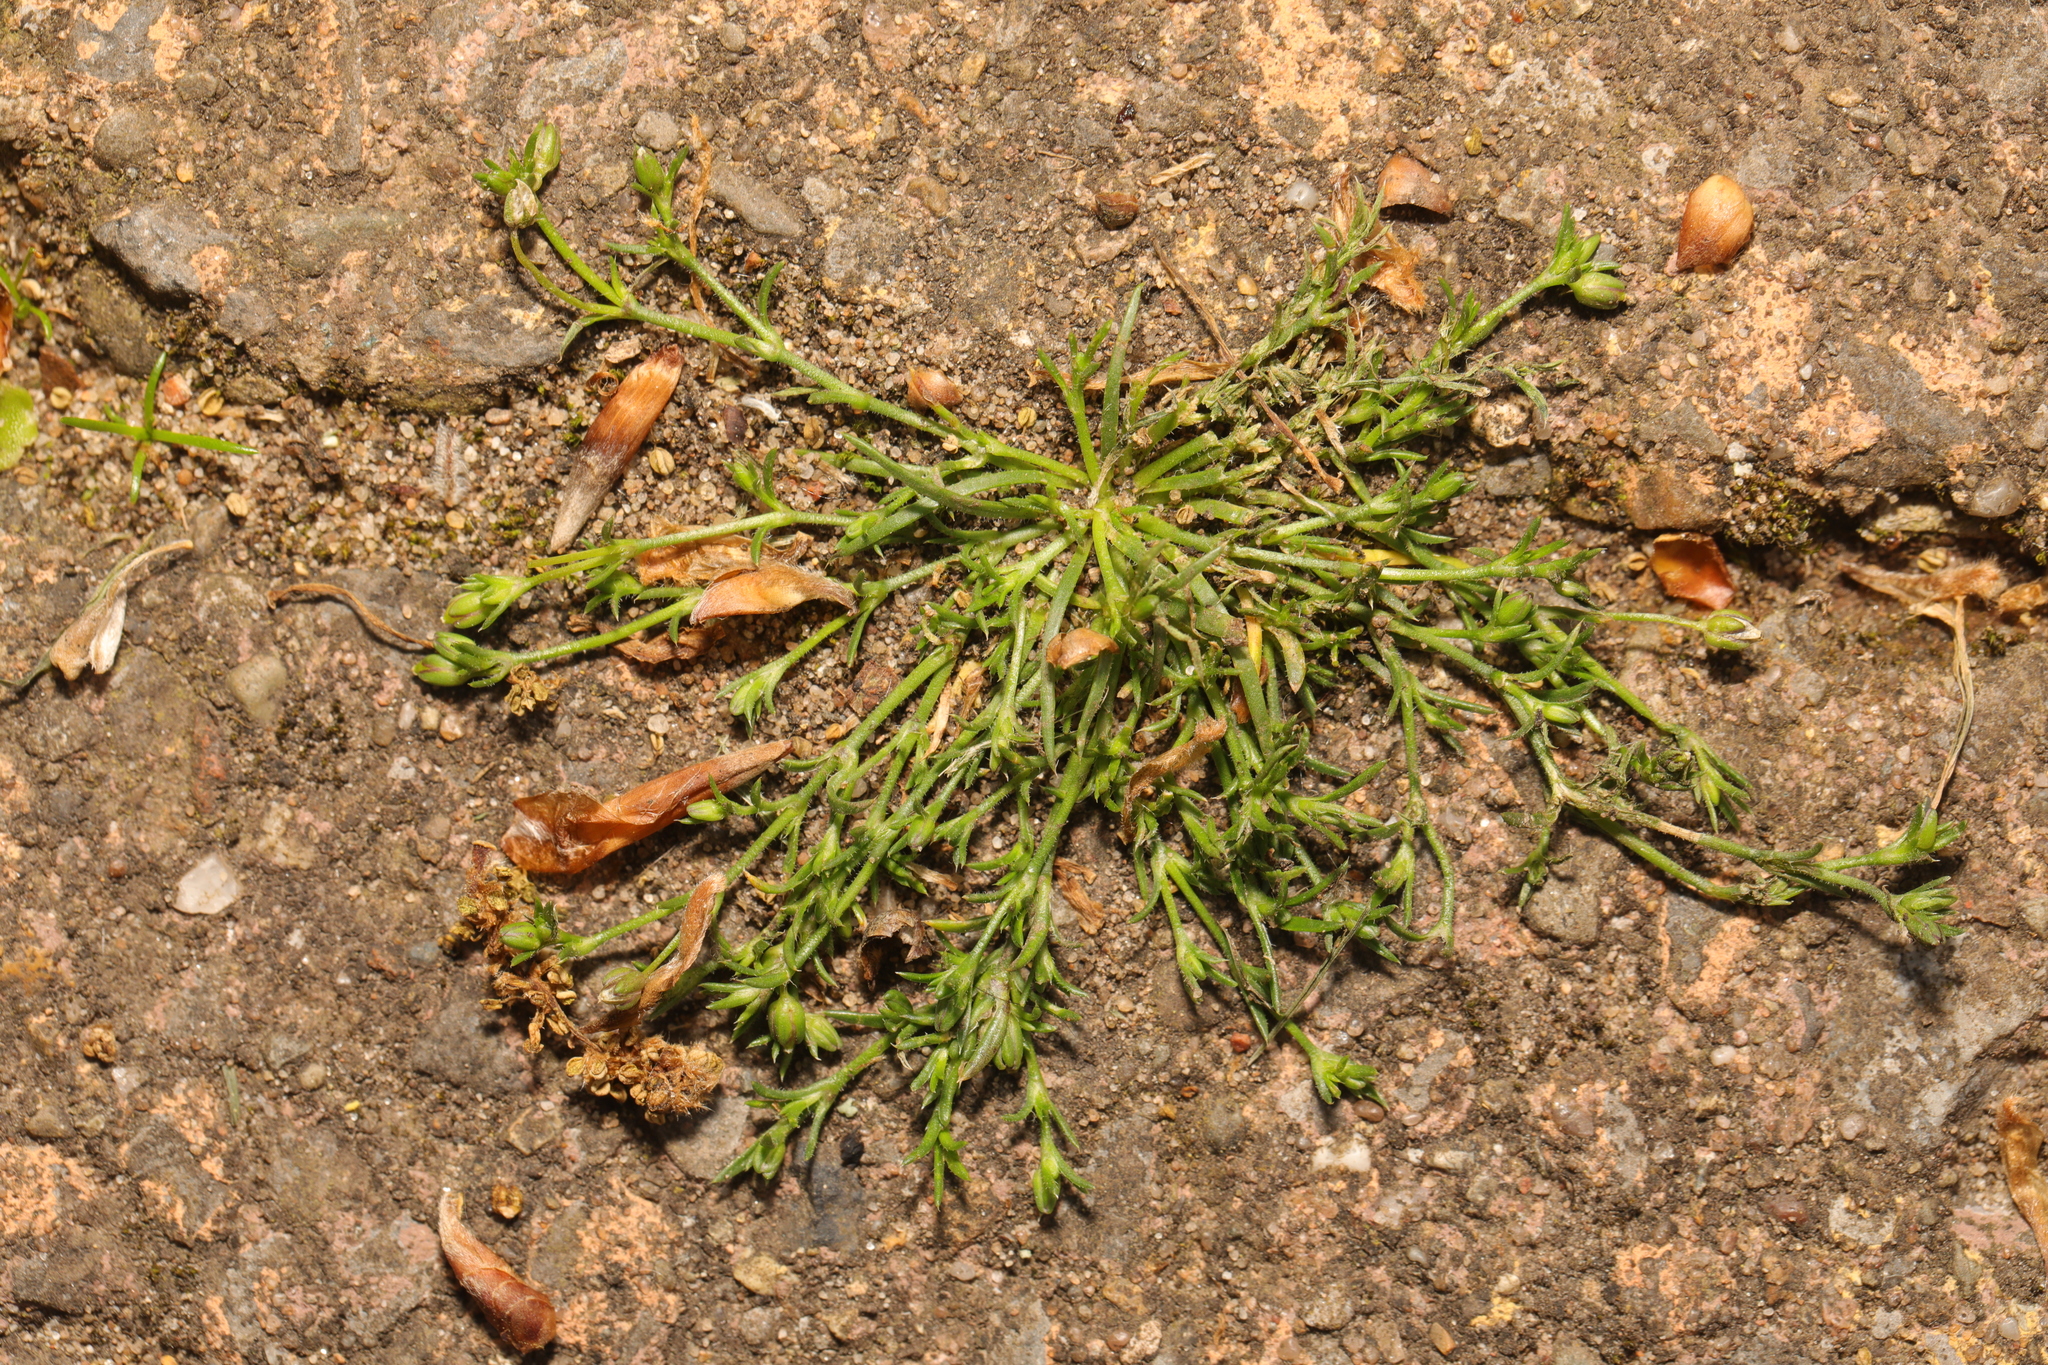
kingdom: Plantae
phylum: Tracheophyta
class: Magnoliopsida
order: Caryophyllales
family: Caryophyllaceae
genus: Sagina
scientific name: Sagina procumbens
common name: Procumbent pearlwort
